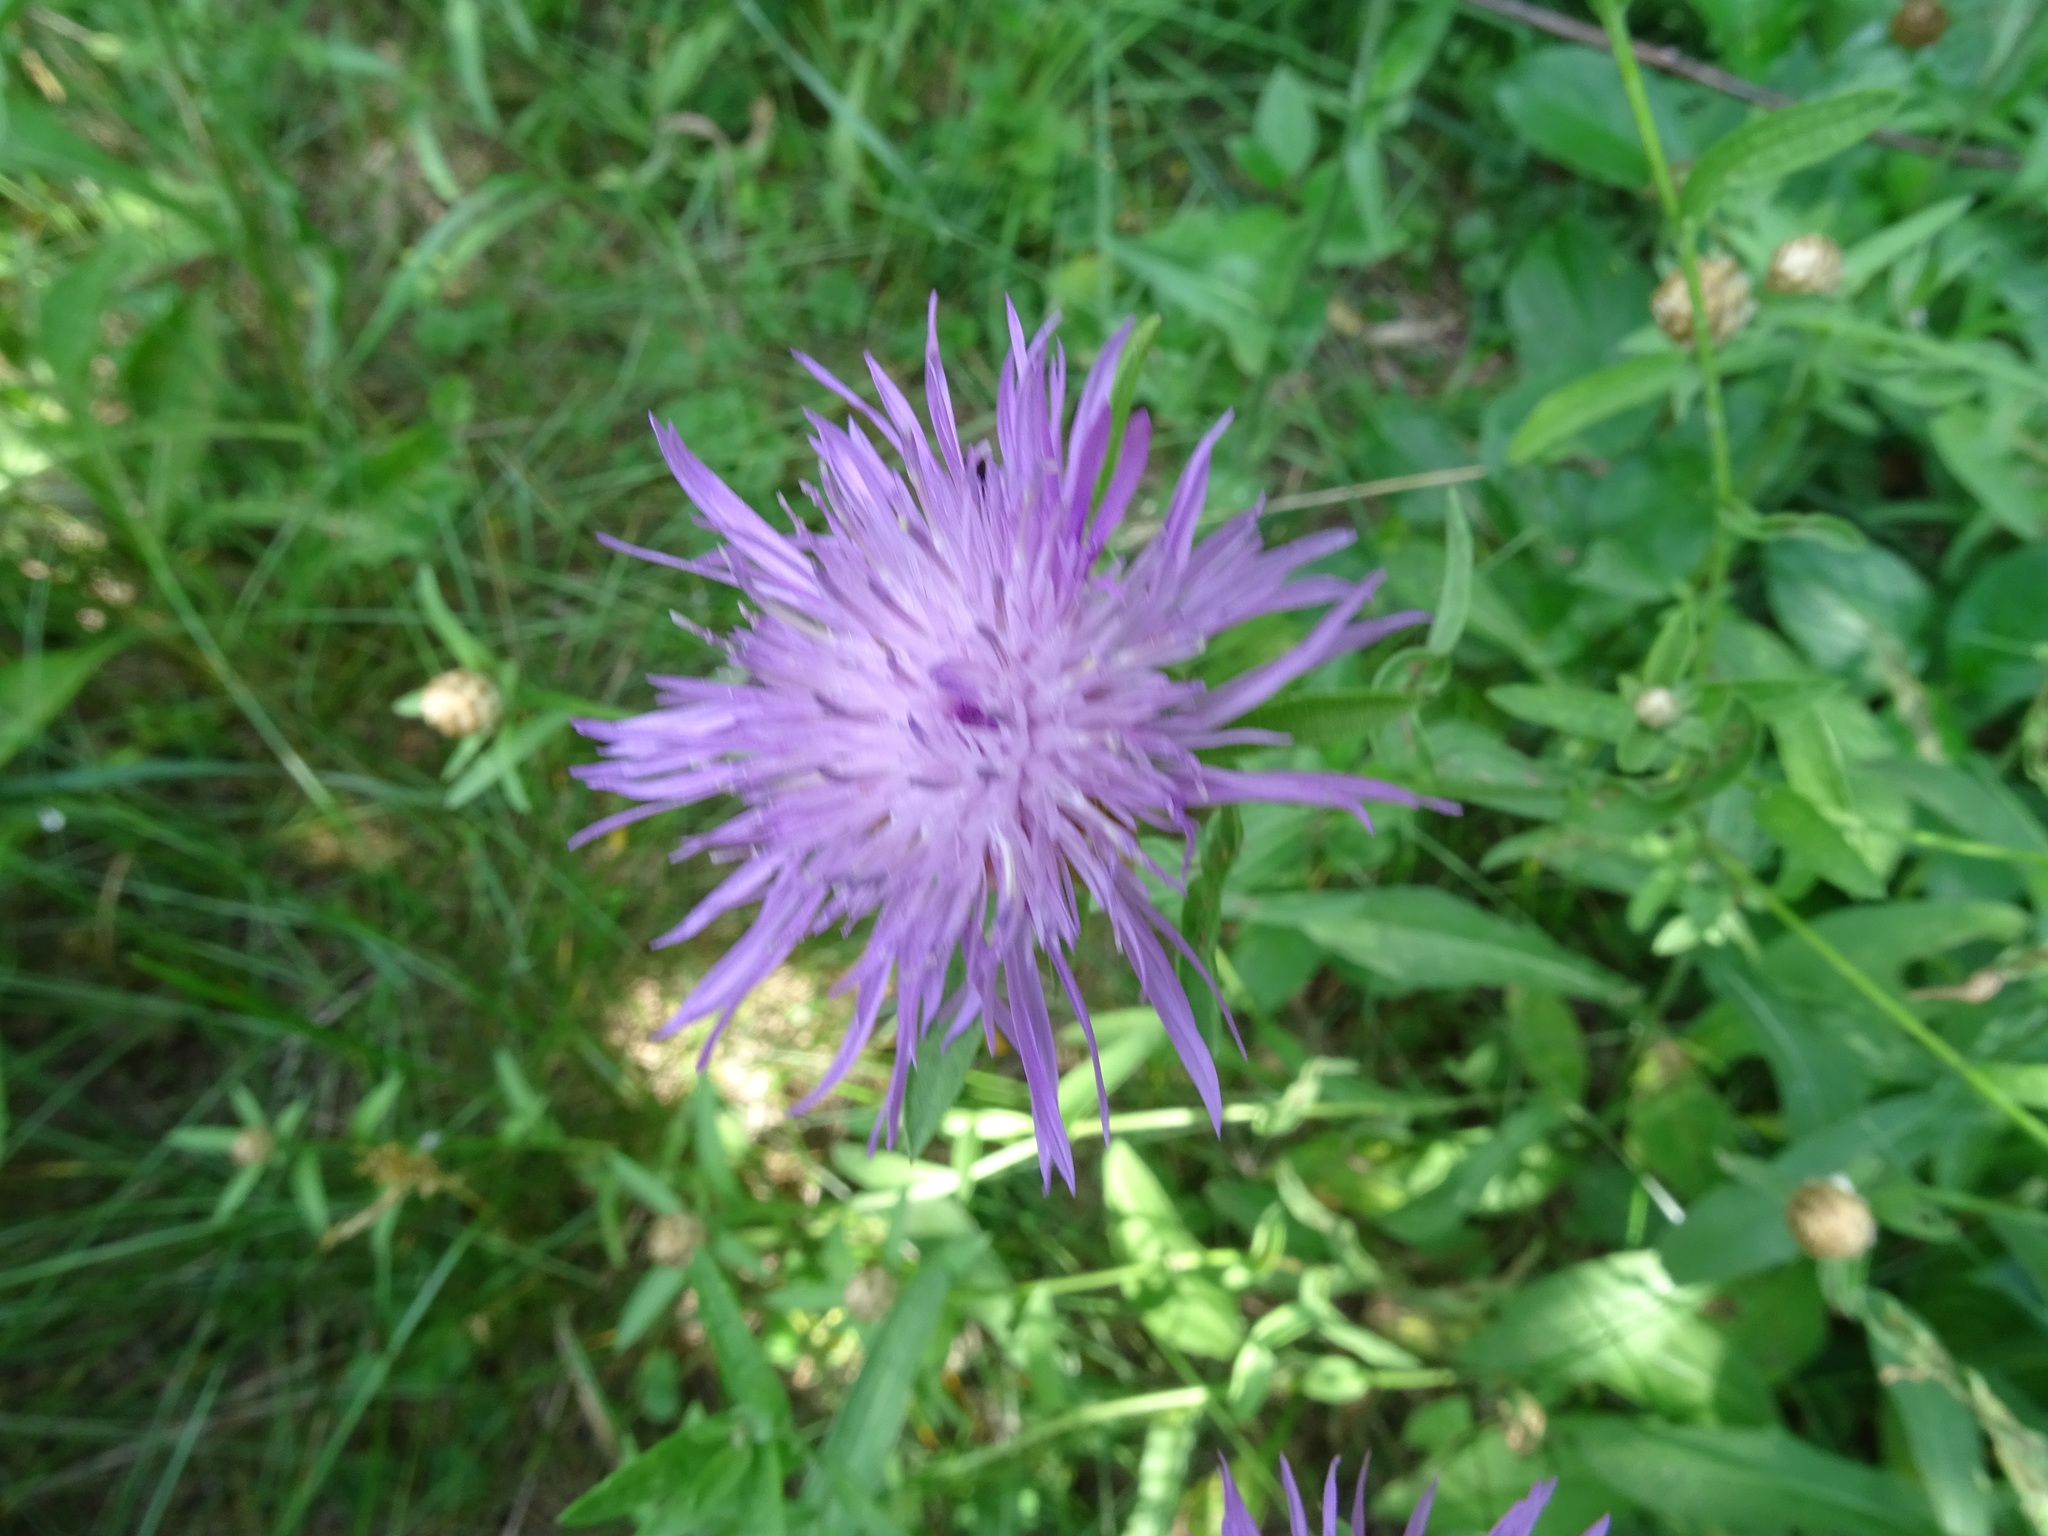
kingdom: Plantae
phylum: Tracheophyta
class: Magnoliopsida
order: Asterales
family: Asteraceae
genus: Centaurea
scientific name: Centaurea moncktonii
